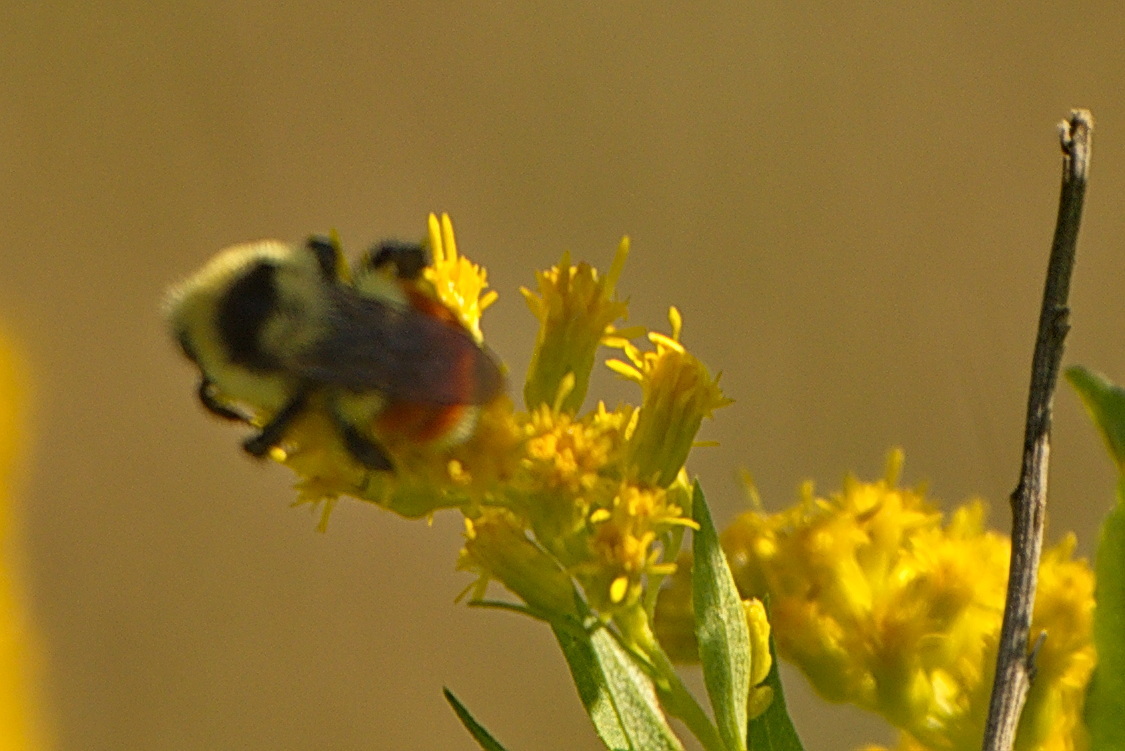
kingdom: Animalia
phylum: Arthropoda
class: Insecta
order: Hymenoptera
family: Apidae
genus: Bombus
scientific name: Bombus huntii
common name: Hunt bumble bee
